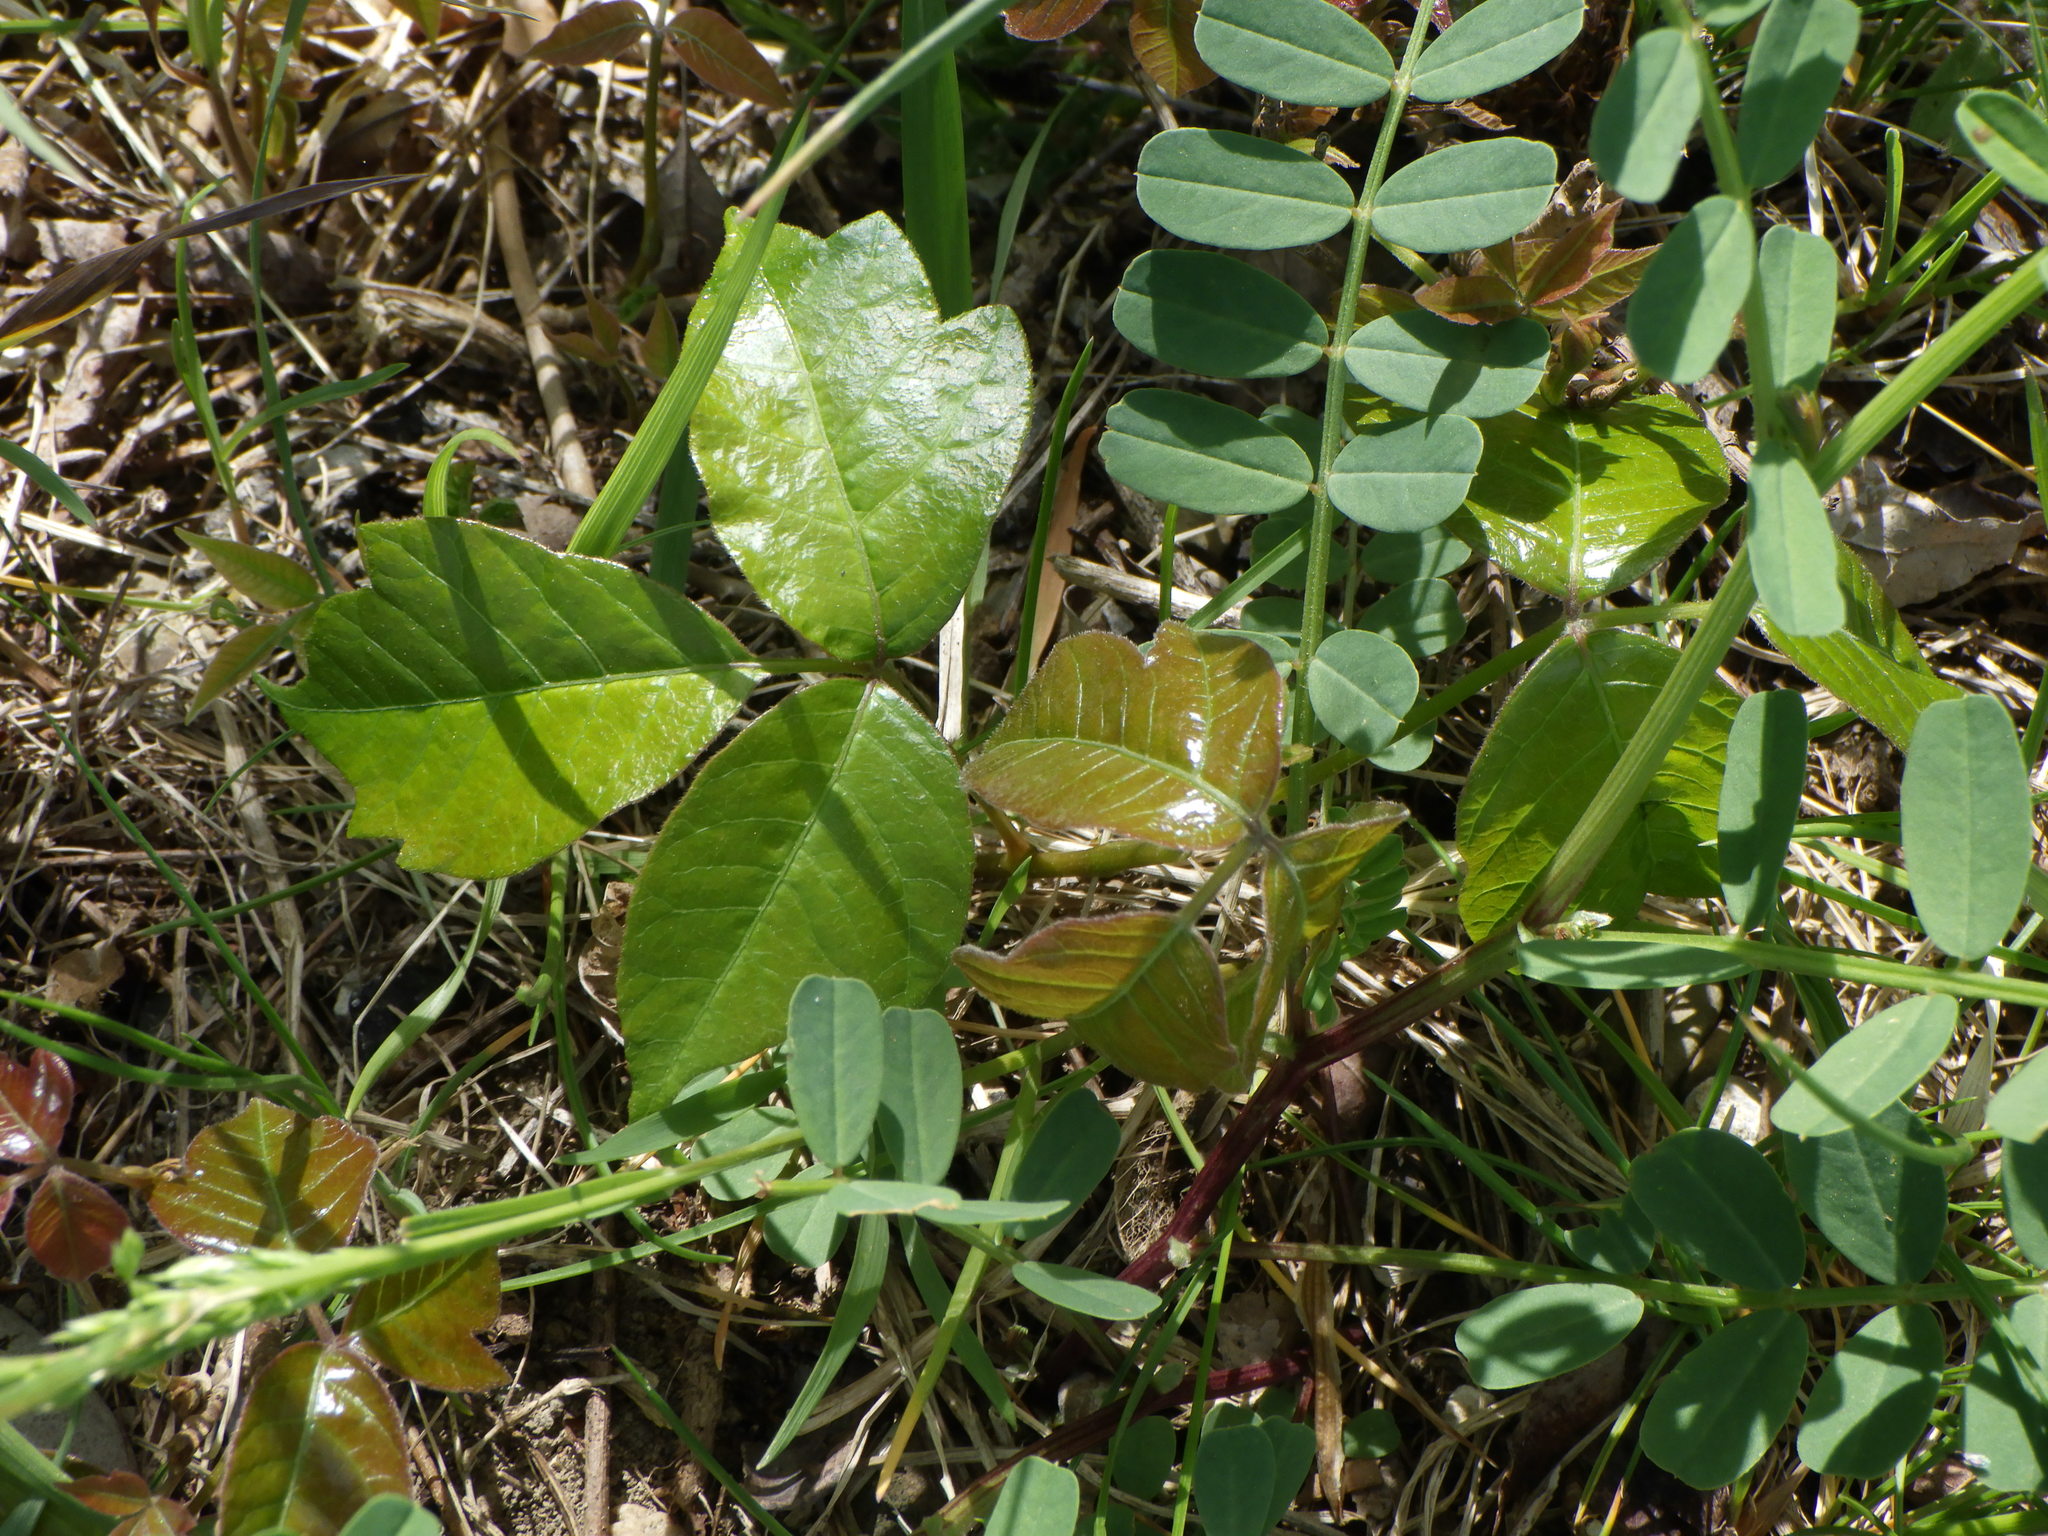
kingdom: Plantae
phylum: Tracheophyta
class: Magnoliopsida
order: Sapindales
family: Anacardiaceae
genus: Toxicodendron
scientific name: Toxicodendron radicans
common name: Poison ivy
